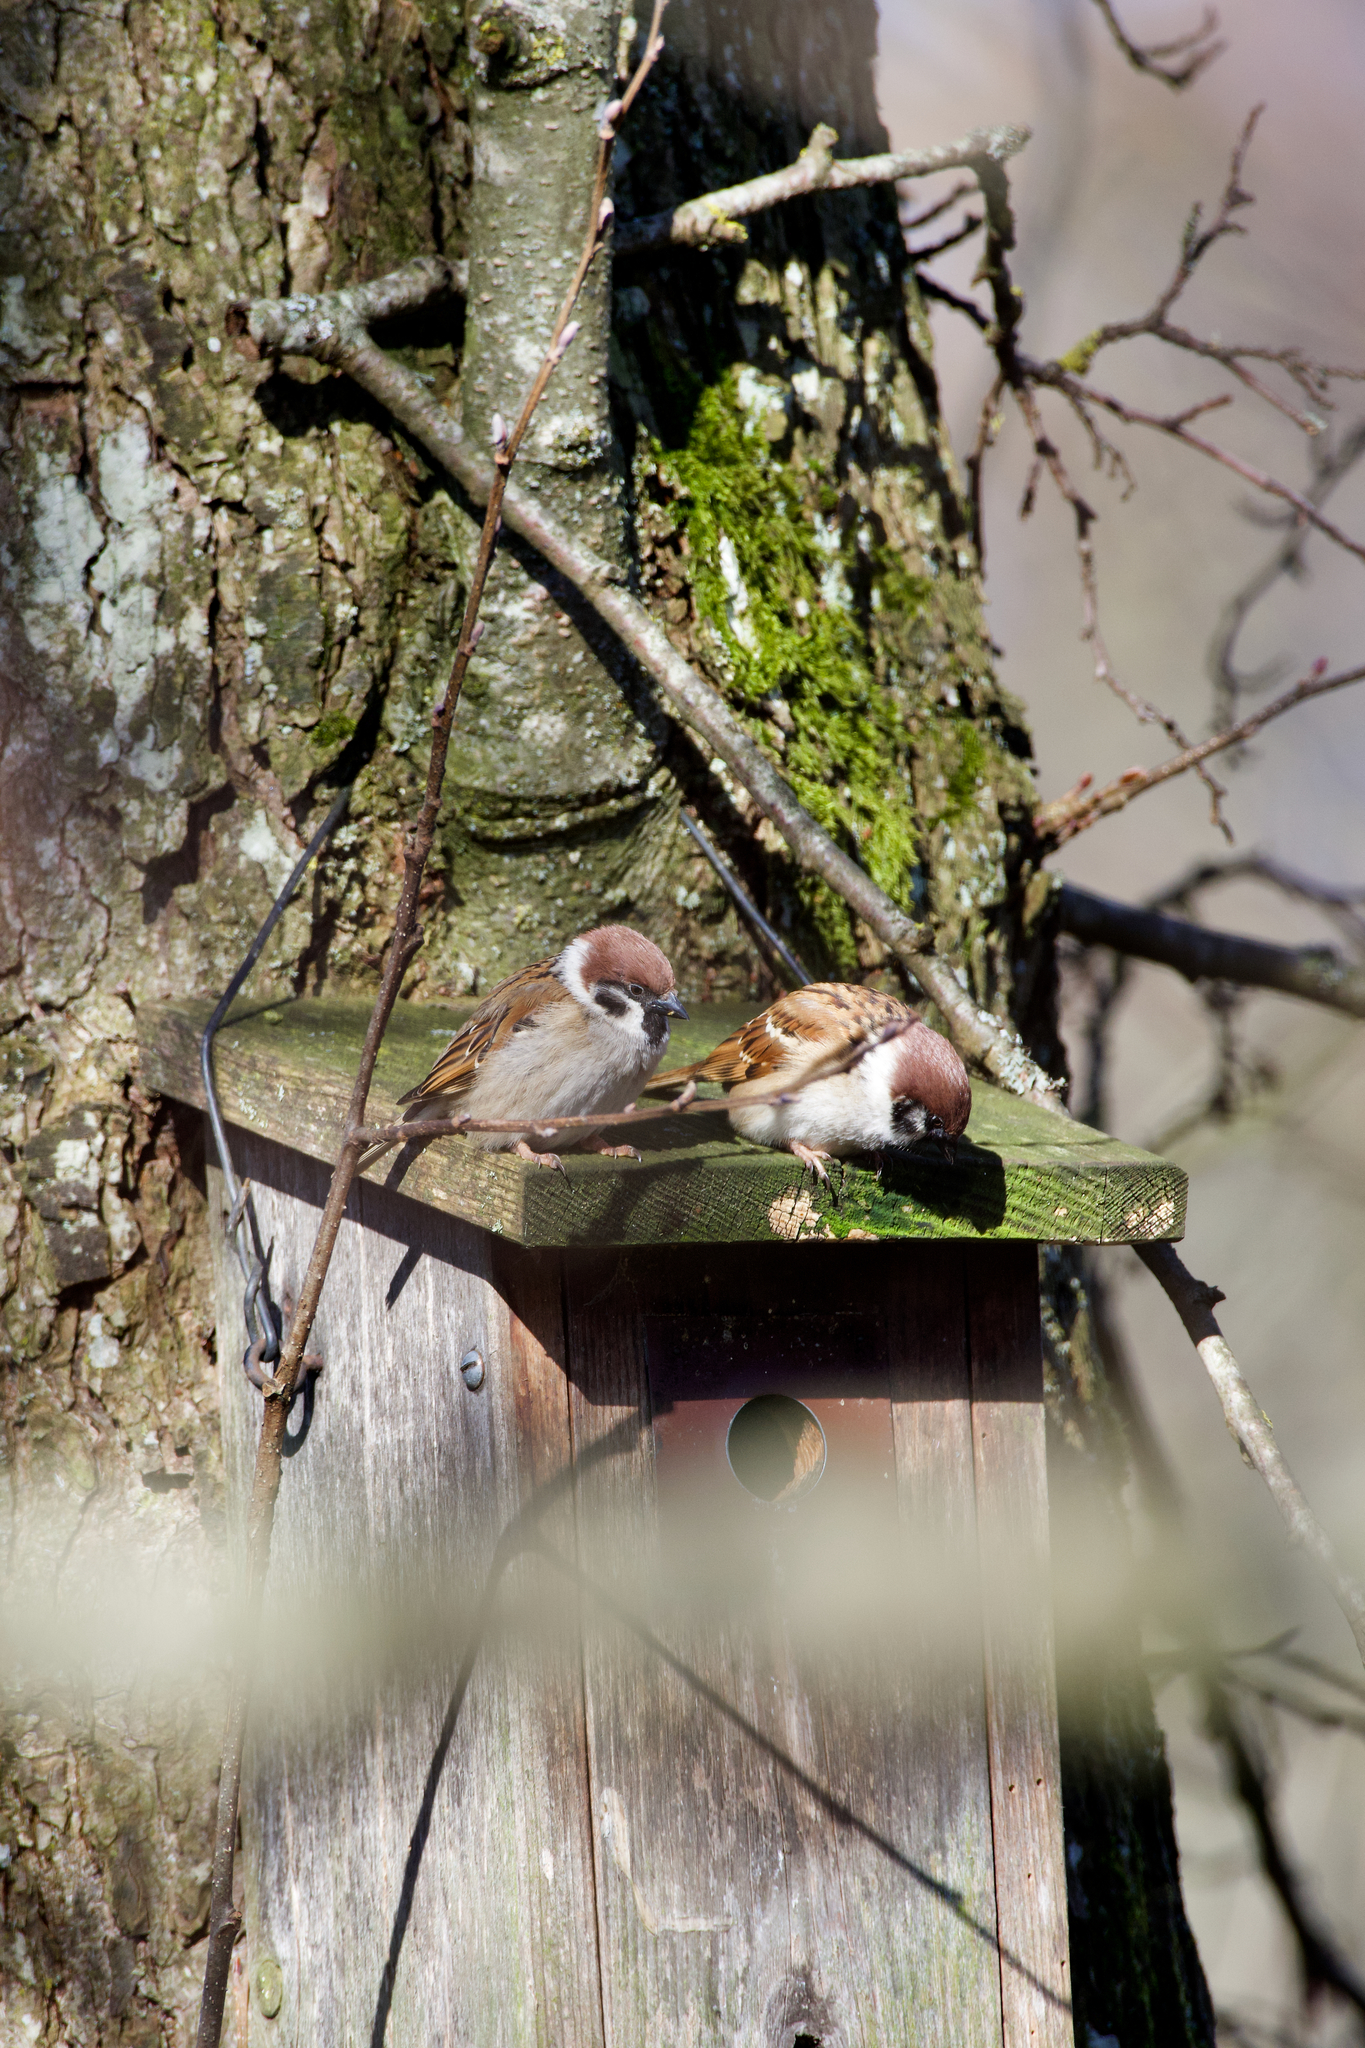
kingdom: Animalia
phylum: Chordata
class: Aves
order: Passeriformes
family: Passeridae
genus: Passer
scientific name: Passer montanus
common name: Eurasian tree sparrow
